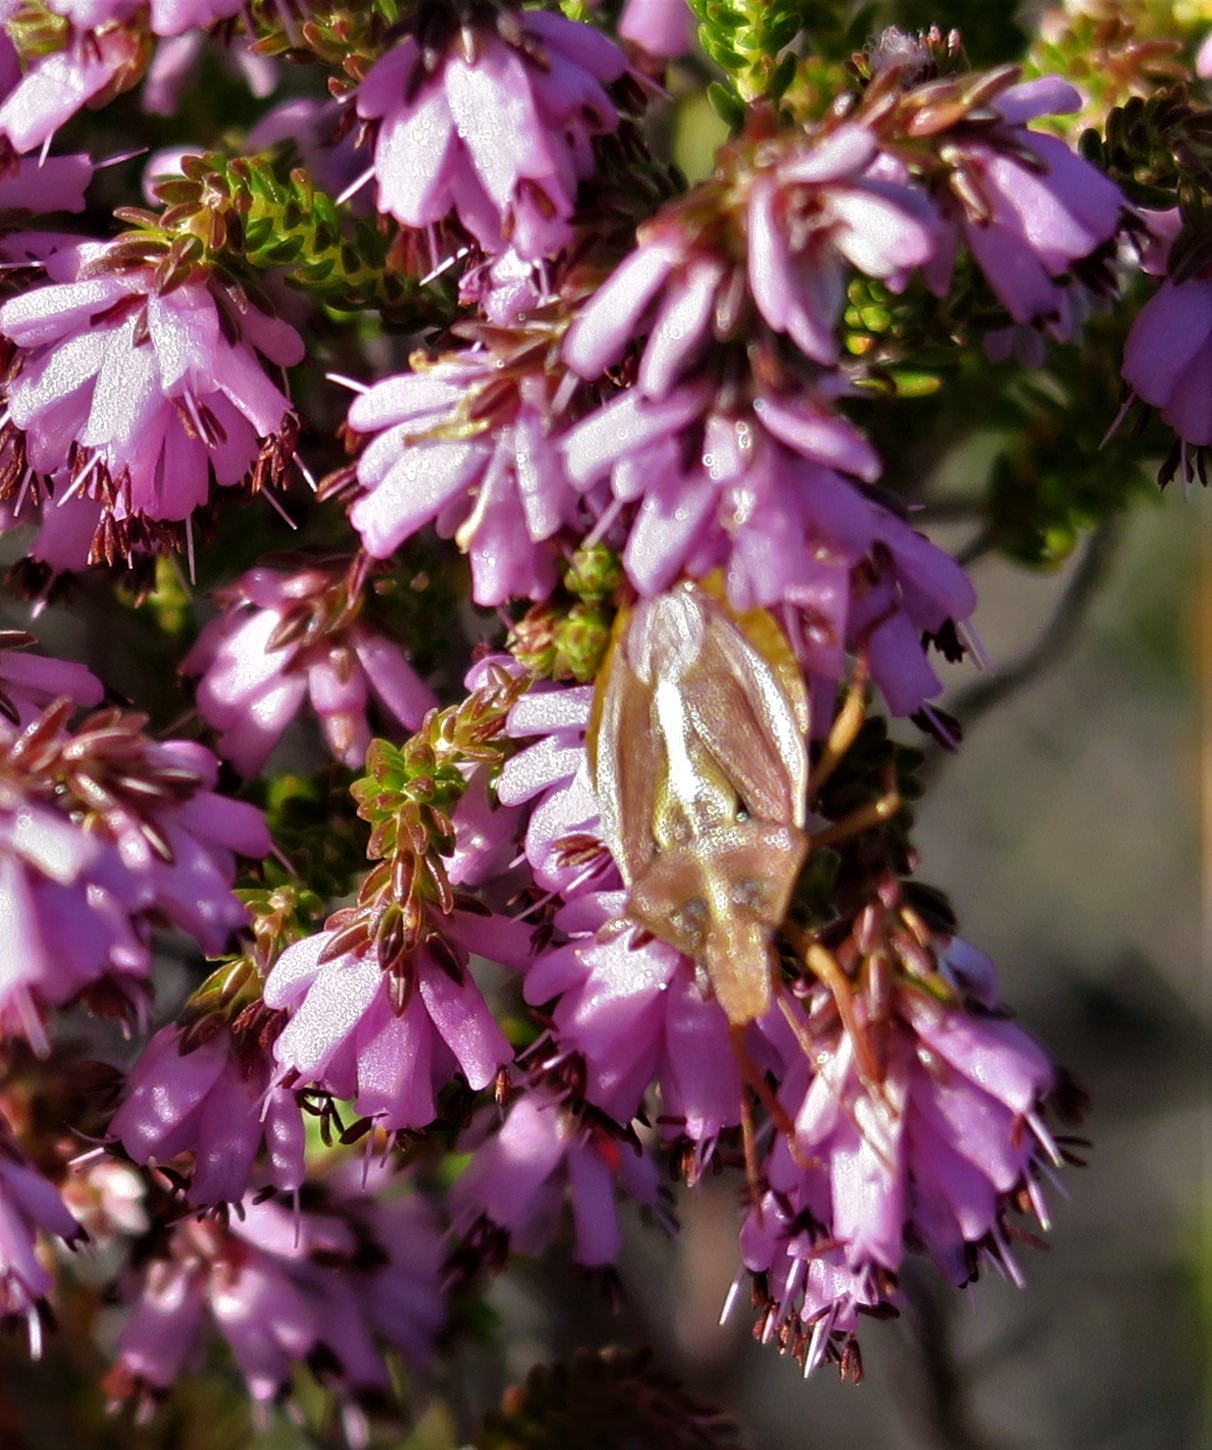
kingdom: Animalia
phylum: Arthropoda
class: Insecta
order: Hemiptera
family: Pentatomidae
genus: Tropicorypha
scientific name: Tropicorypha
